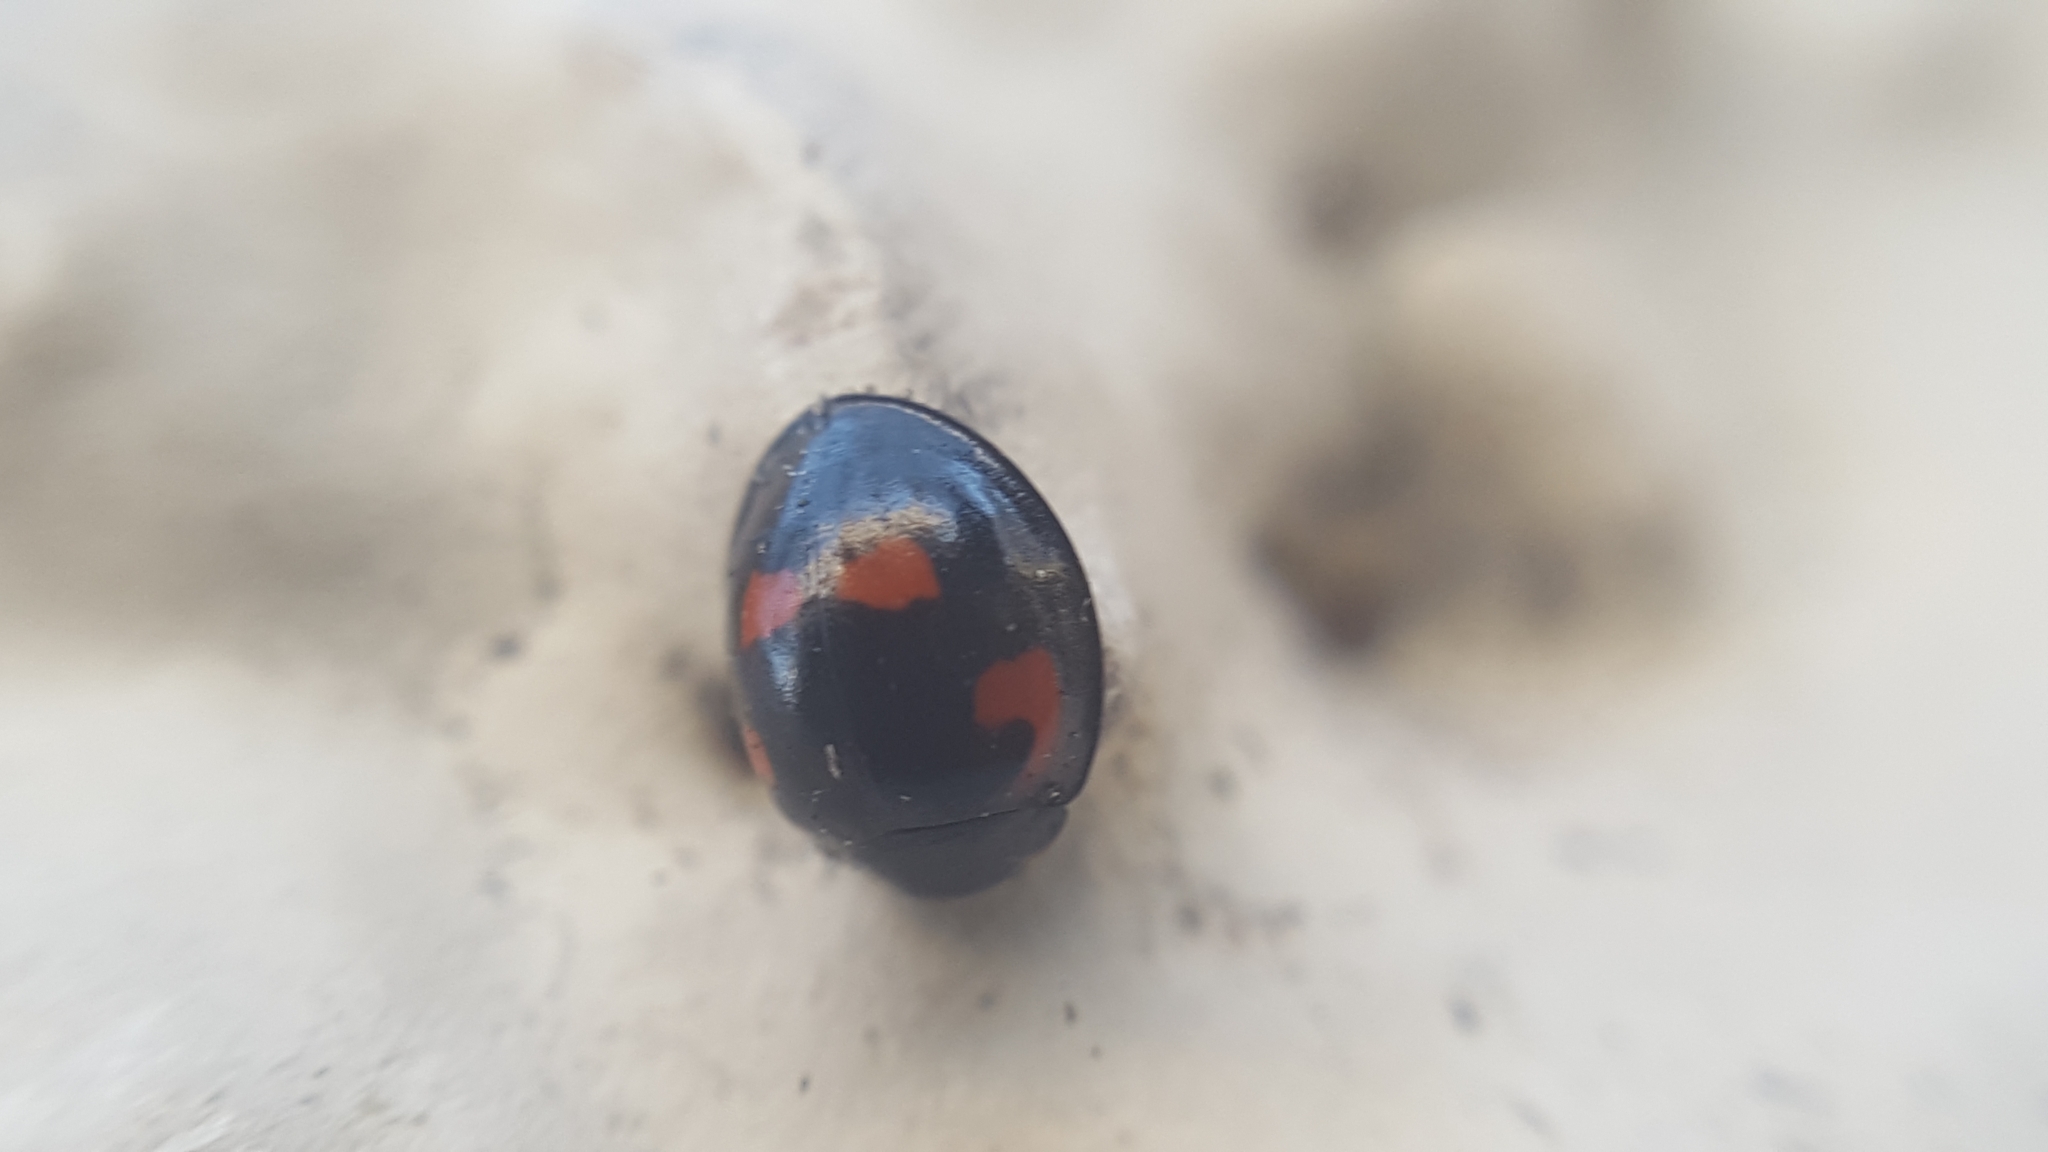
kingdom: Animalia
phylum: Arthropoda
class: Insecta
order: Coleoptera
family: Coccinellidae
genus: Brumus
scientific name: Brumus quadripustulatus
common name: Ladybird beetle
